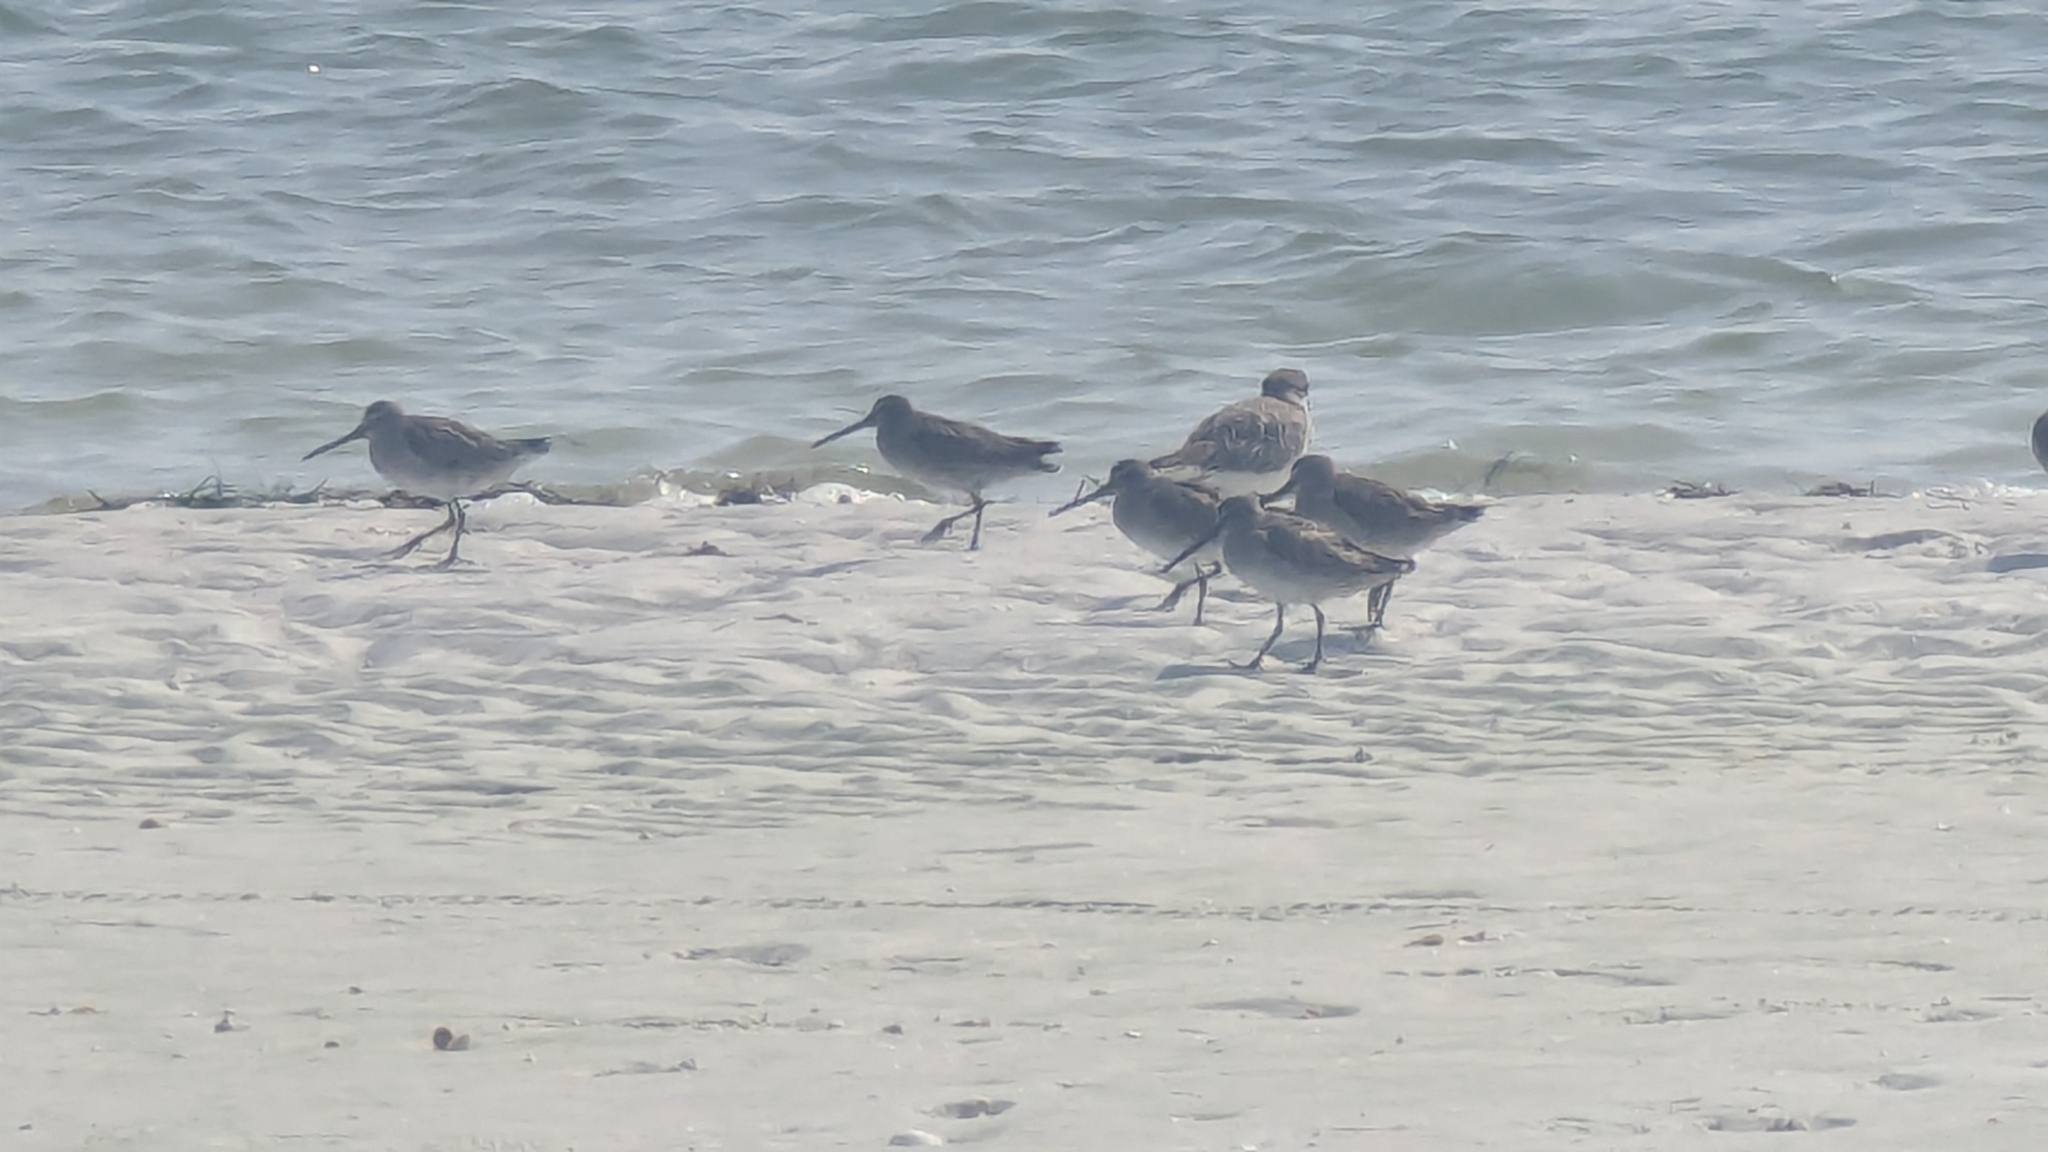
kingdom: Animalia
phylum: Chordata
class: Aves
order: Charadriiformes
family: Scolopacidae
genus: Limnodromus
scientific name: Limnodromus griseus
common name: Short-billed dowitcher
